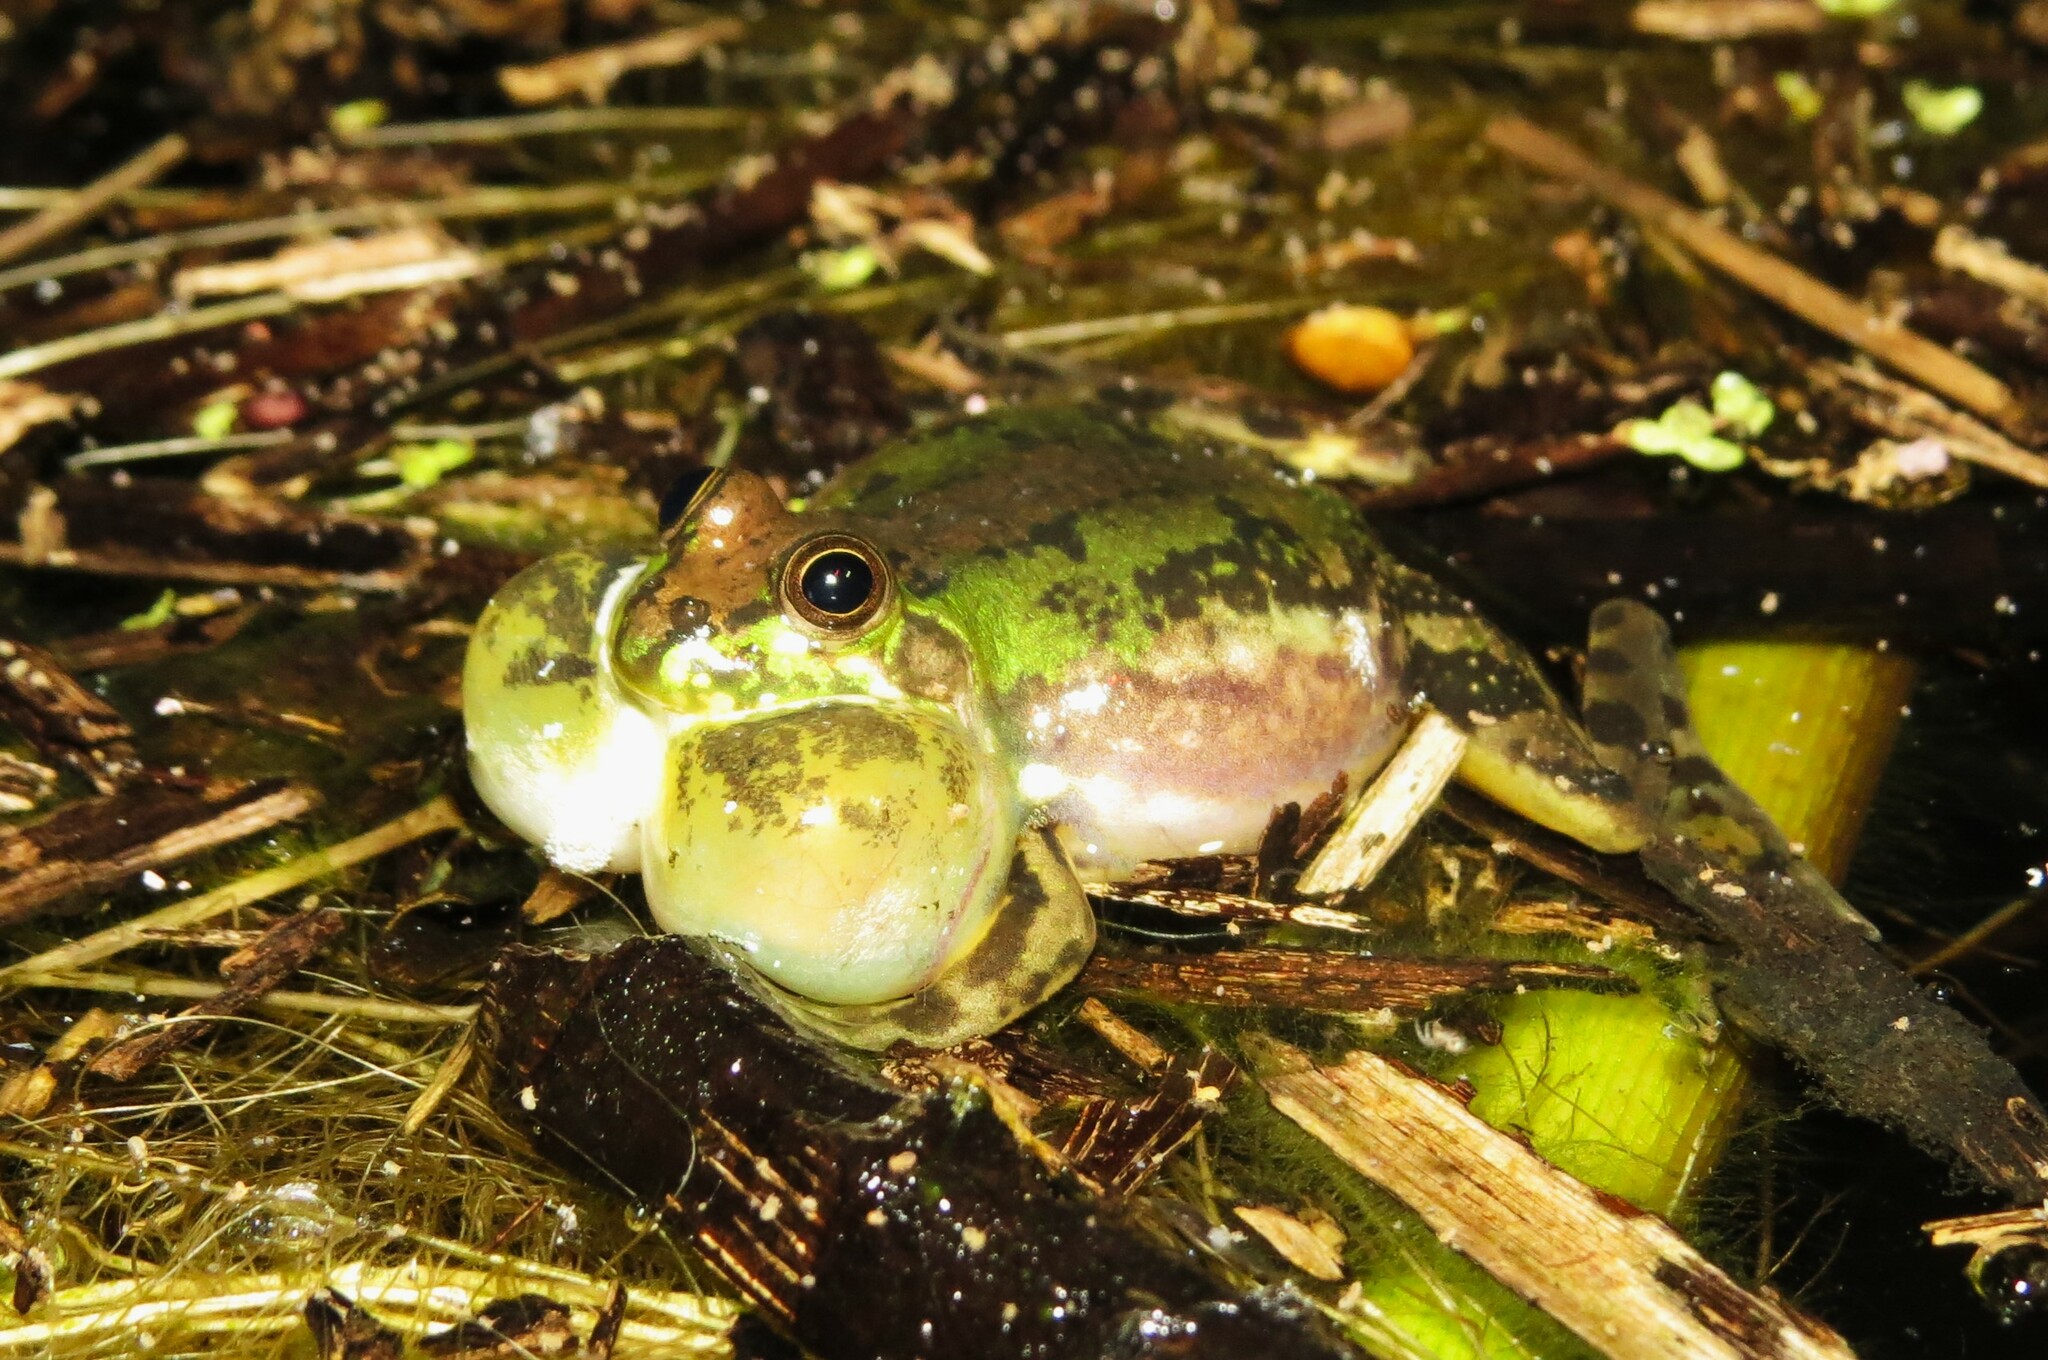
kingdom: Animalia
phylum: Chordata
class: Amphibia
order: Anura
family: Hylidae
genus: Pseudis
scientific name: Pseudis minuta
